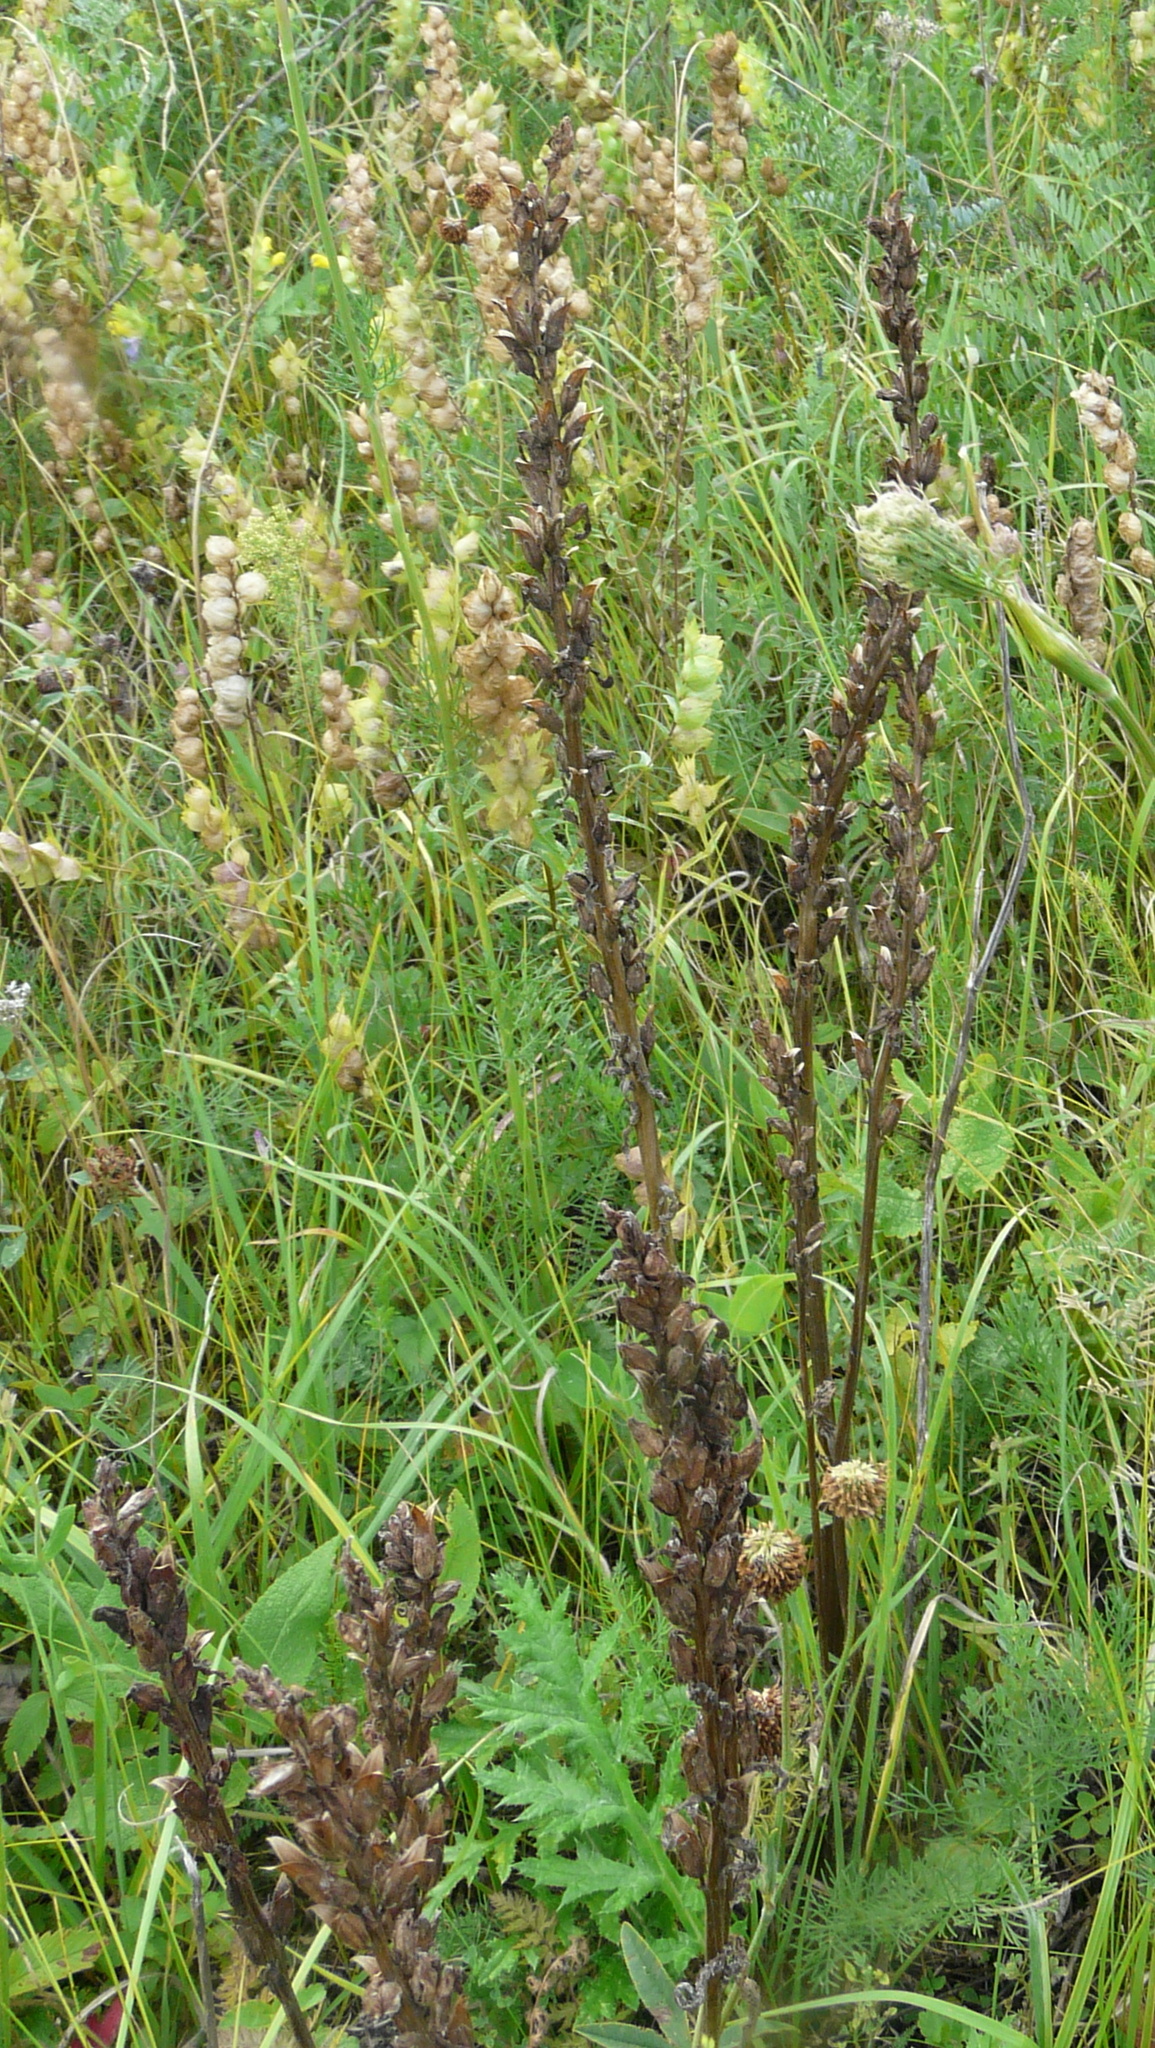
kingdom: Plantae
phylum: Tracheophyta
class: Magnoliopsida
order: Lamiales
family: Orobanchaceae
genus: Pedicularis
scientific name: Pedicularis kaufmannii
